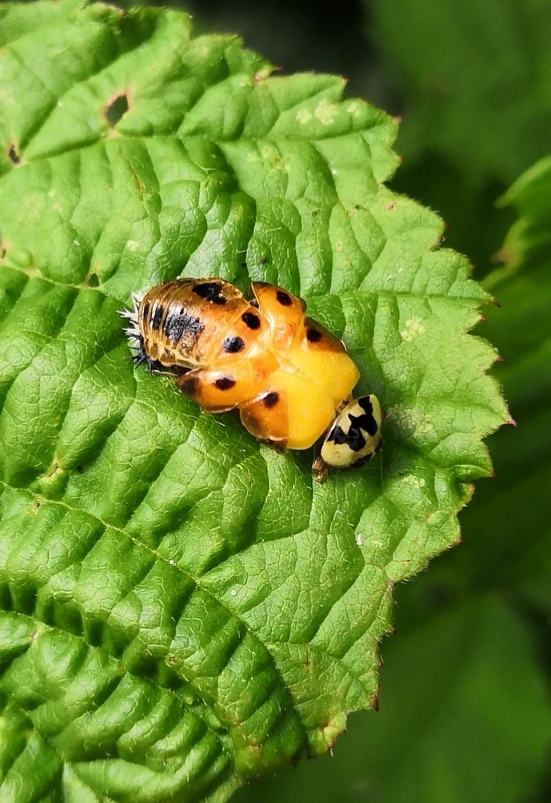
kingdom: Animalia
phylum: Arthropoda
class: Insecta
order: Coleoptera
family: Coccinellidae
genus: Harmonia
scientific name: Harmonia axyridis
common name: Harlequin ladybird
